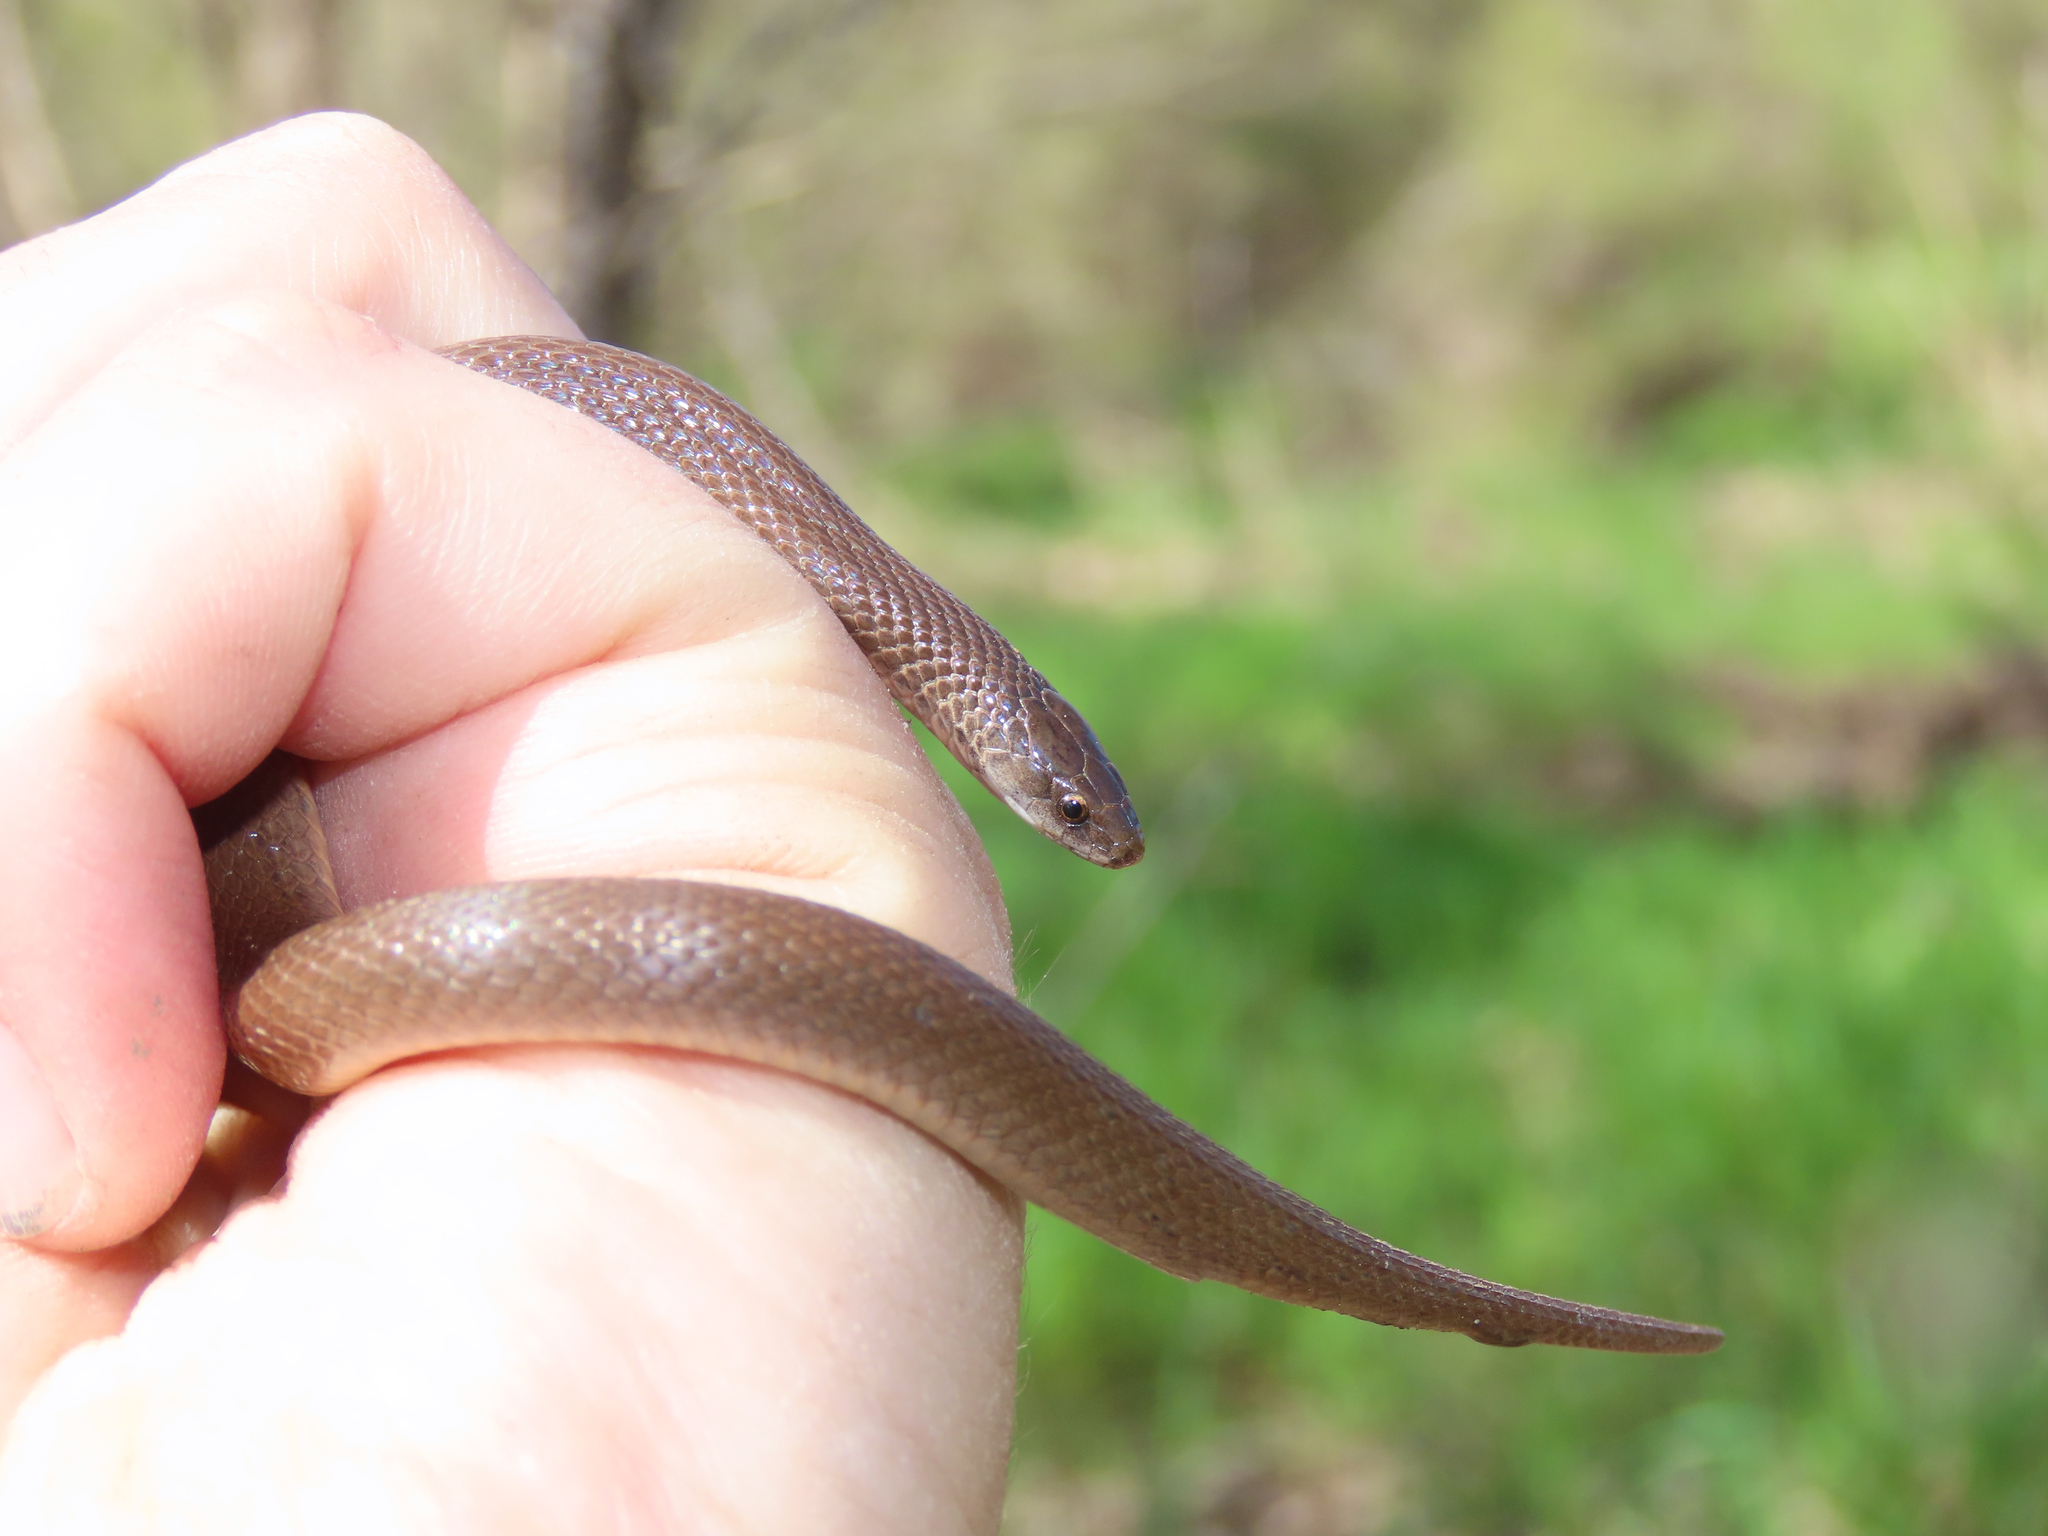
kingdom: Animalia
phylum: Chordata
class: Squamata
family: Colubridae
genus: Haldea
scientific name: Haldea striatula
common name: Rough earth snake
